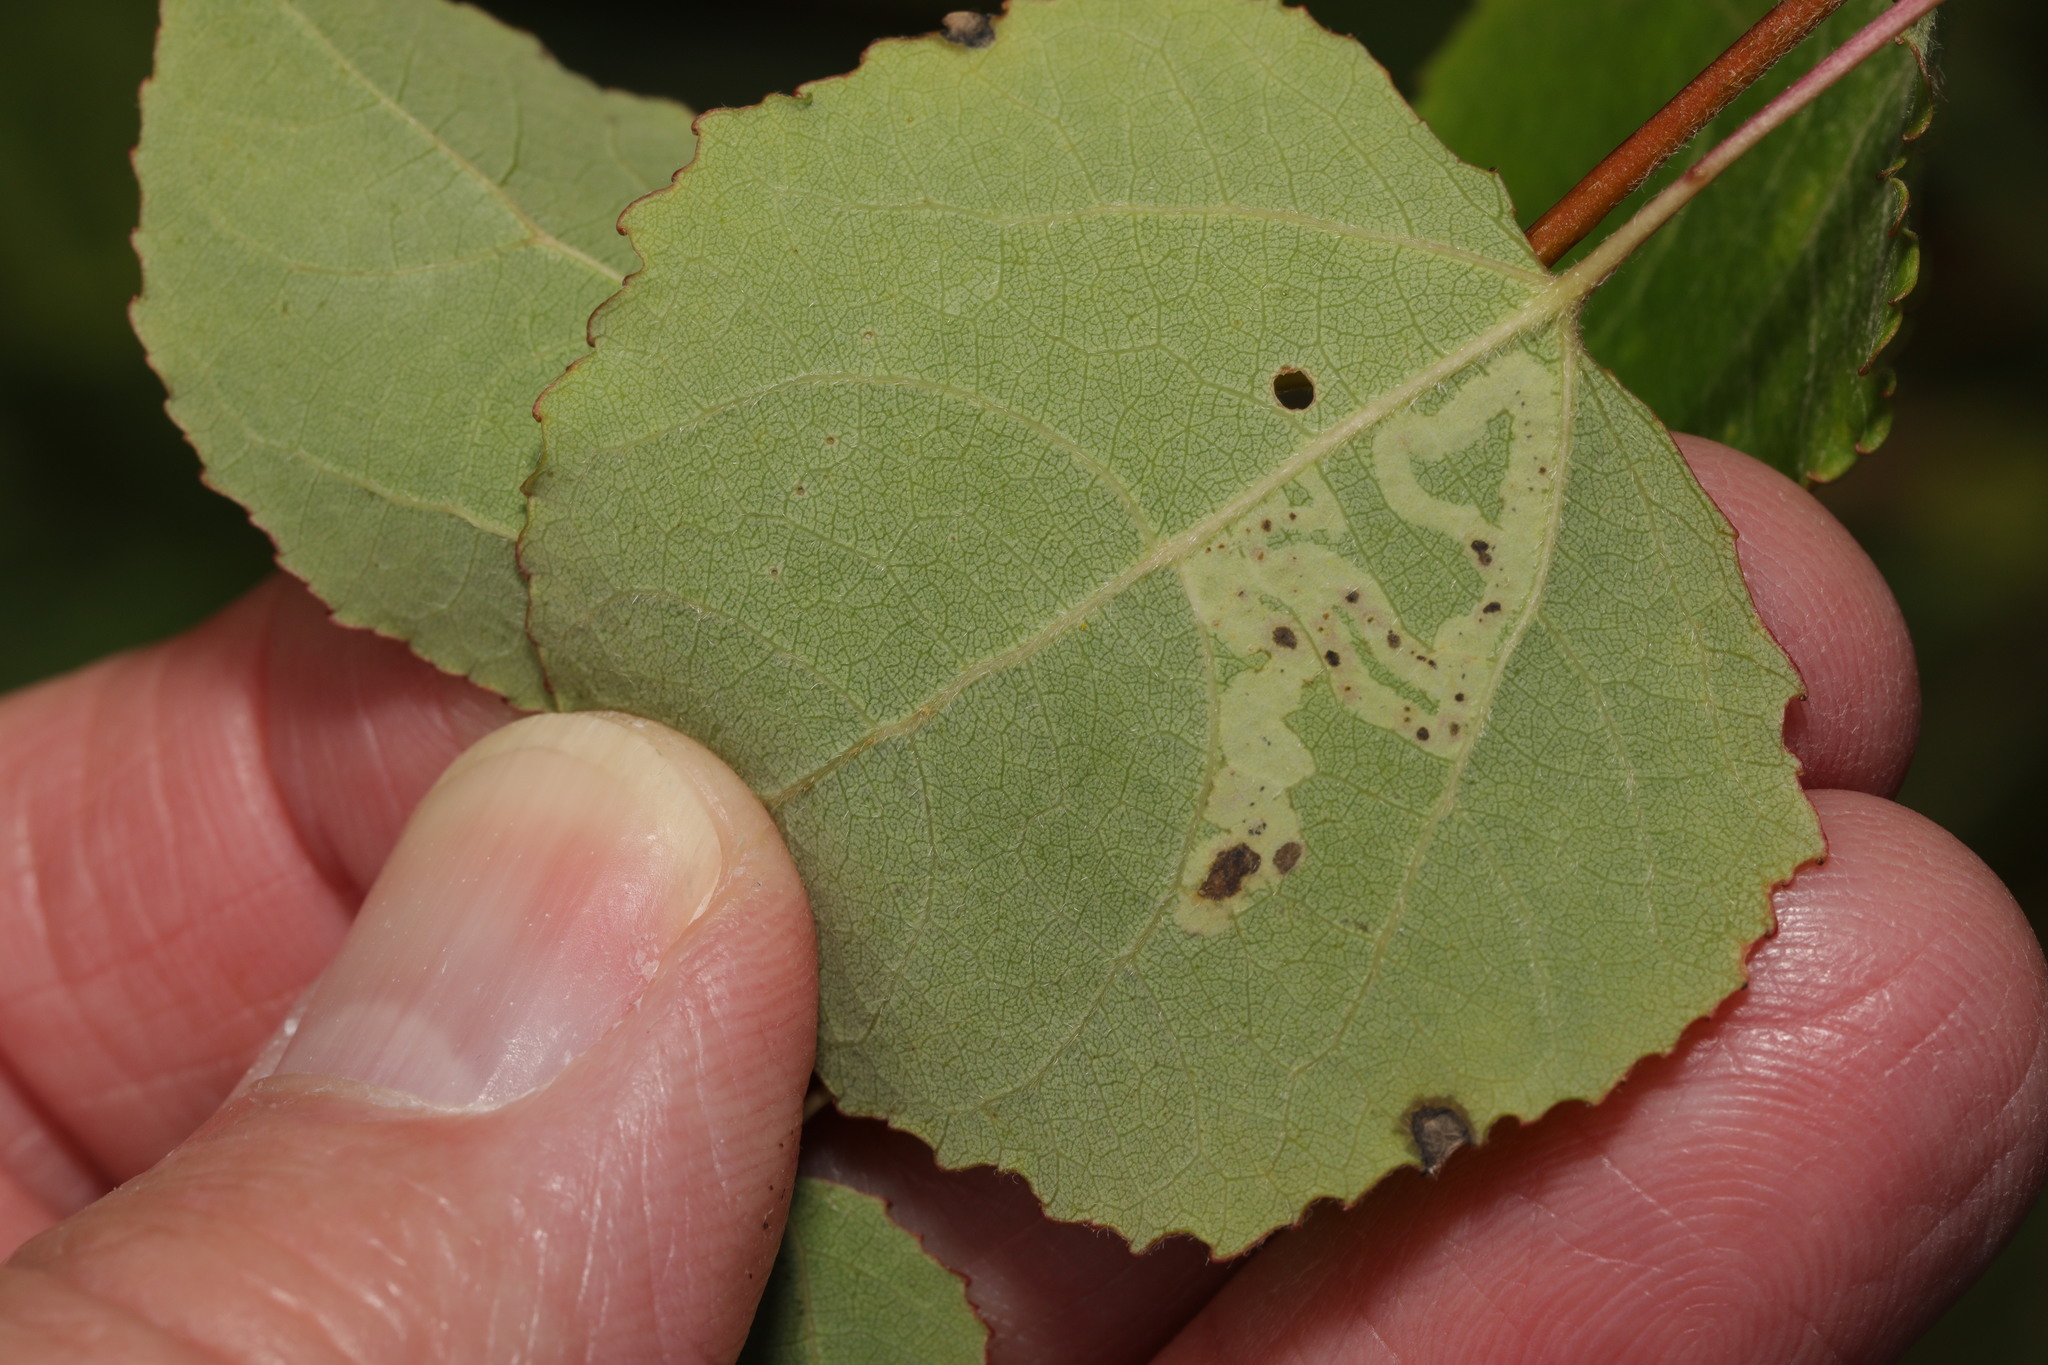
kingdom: Animalia
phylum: Arthropoda
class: Insecta
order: Diptera
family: Agromyzidae
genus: Aulagromyza
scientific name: Aulagromyza tremulae
